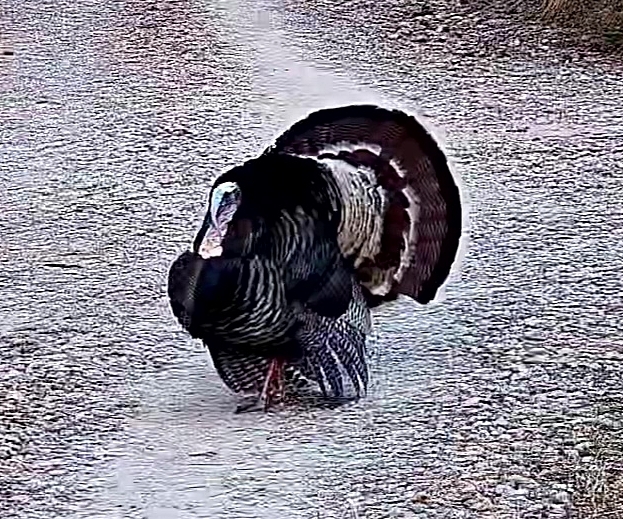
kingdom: Animalia
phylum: Chordata
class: Aves
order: Galliformes
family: Phasianidae
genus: Meleagris
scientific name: Meleagris gallopavo
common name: Wild turkey
